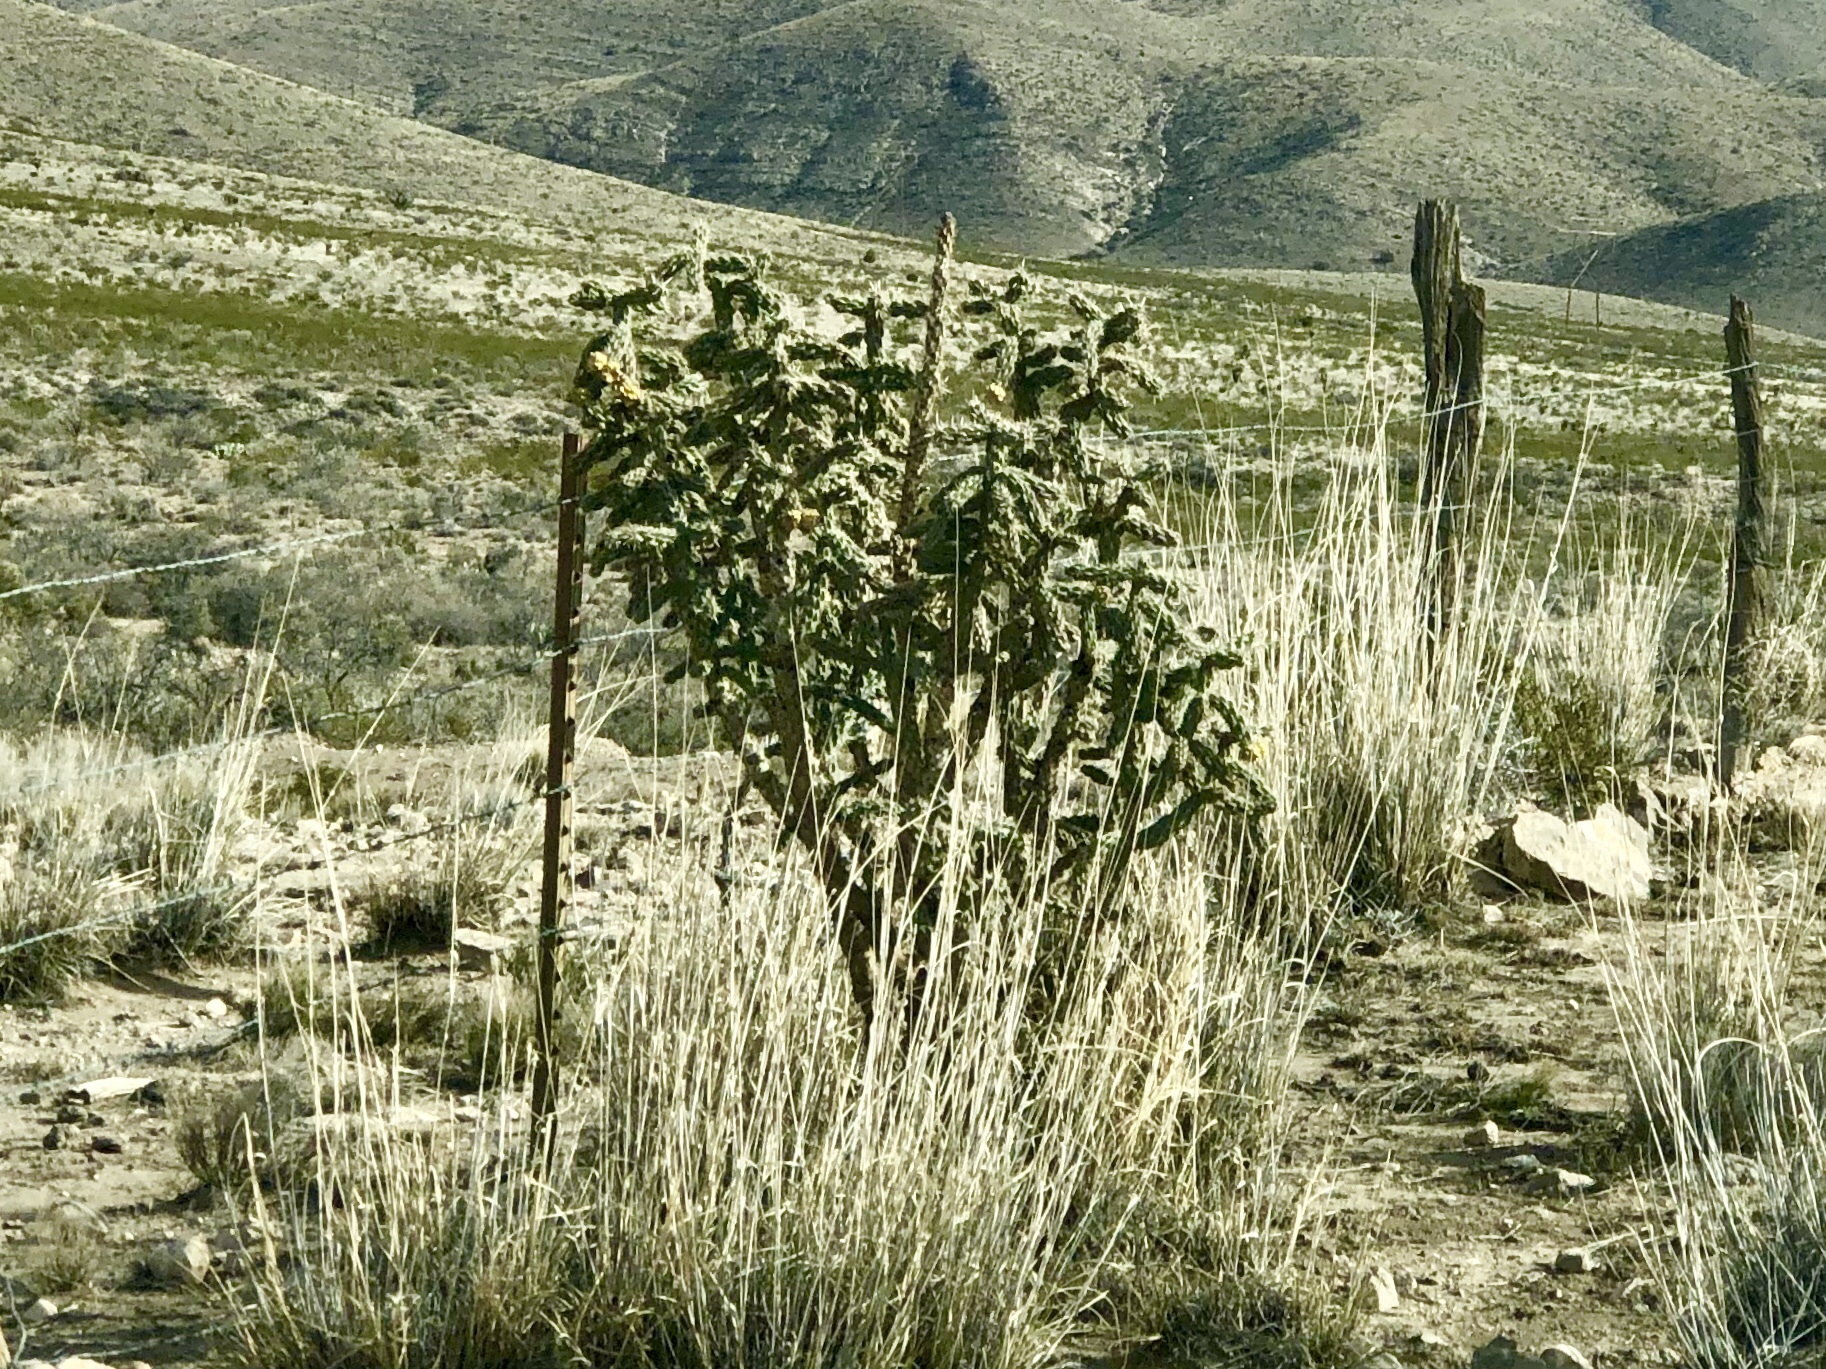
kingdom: Plantae
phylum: Tracheophyta
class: Magnoliopsida
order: Caryophyllales
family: Cactaceae
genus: Cylindropuntia
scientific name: Cylindropuntia imbricata
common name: Candelabrum cactus
